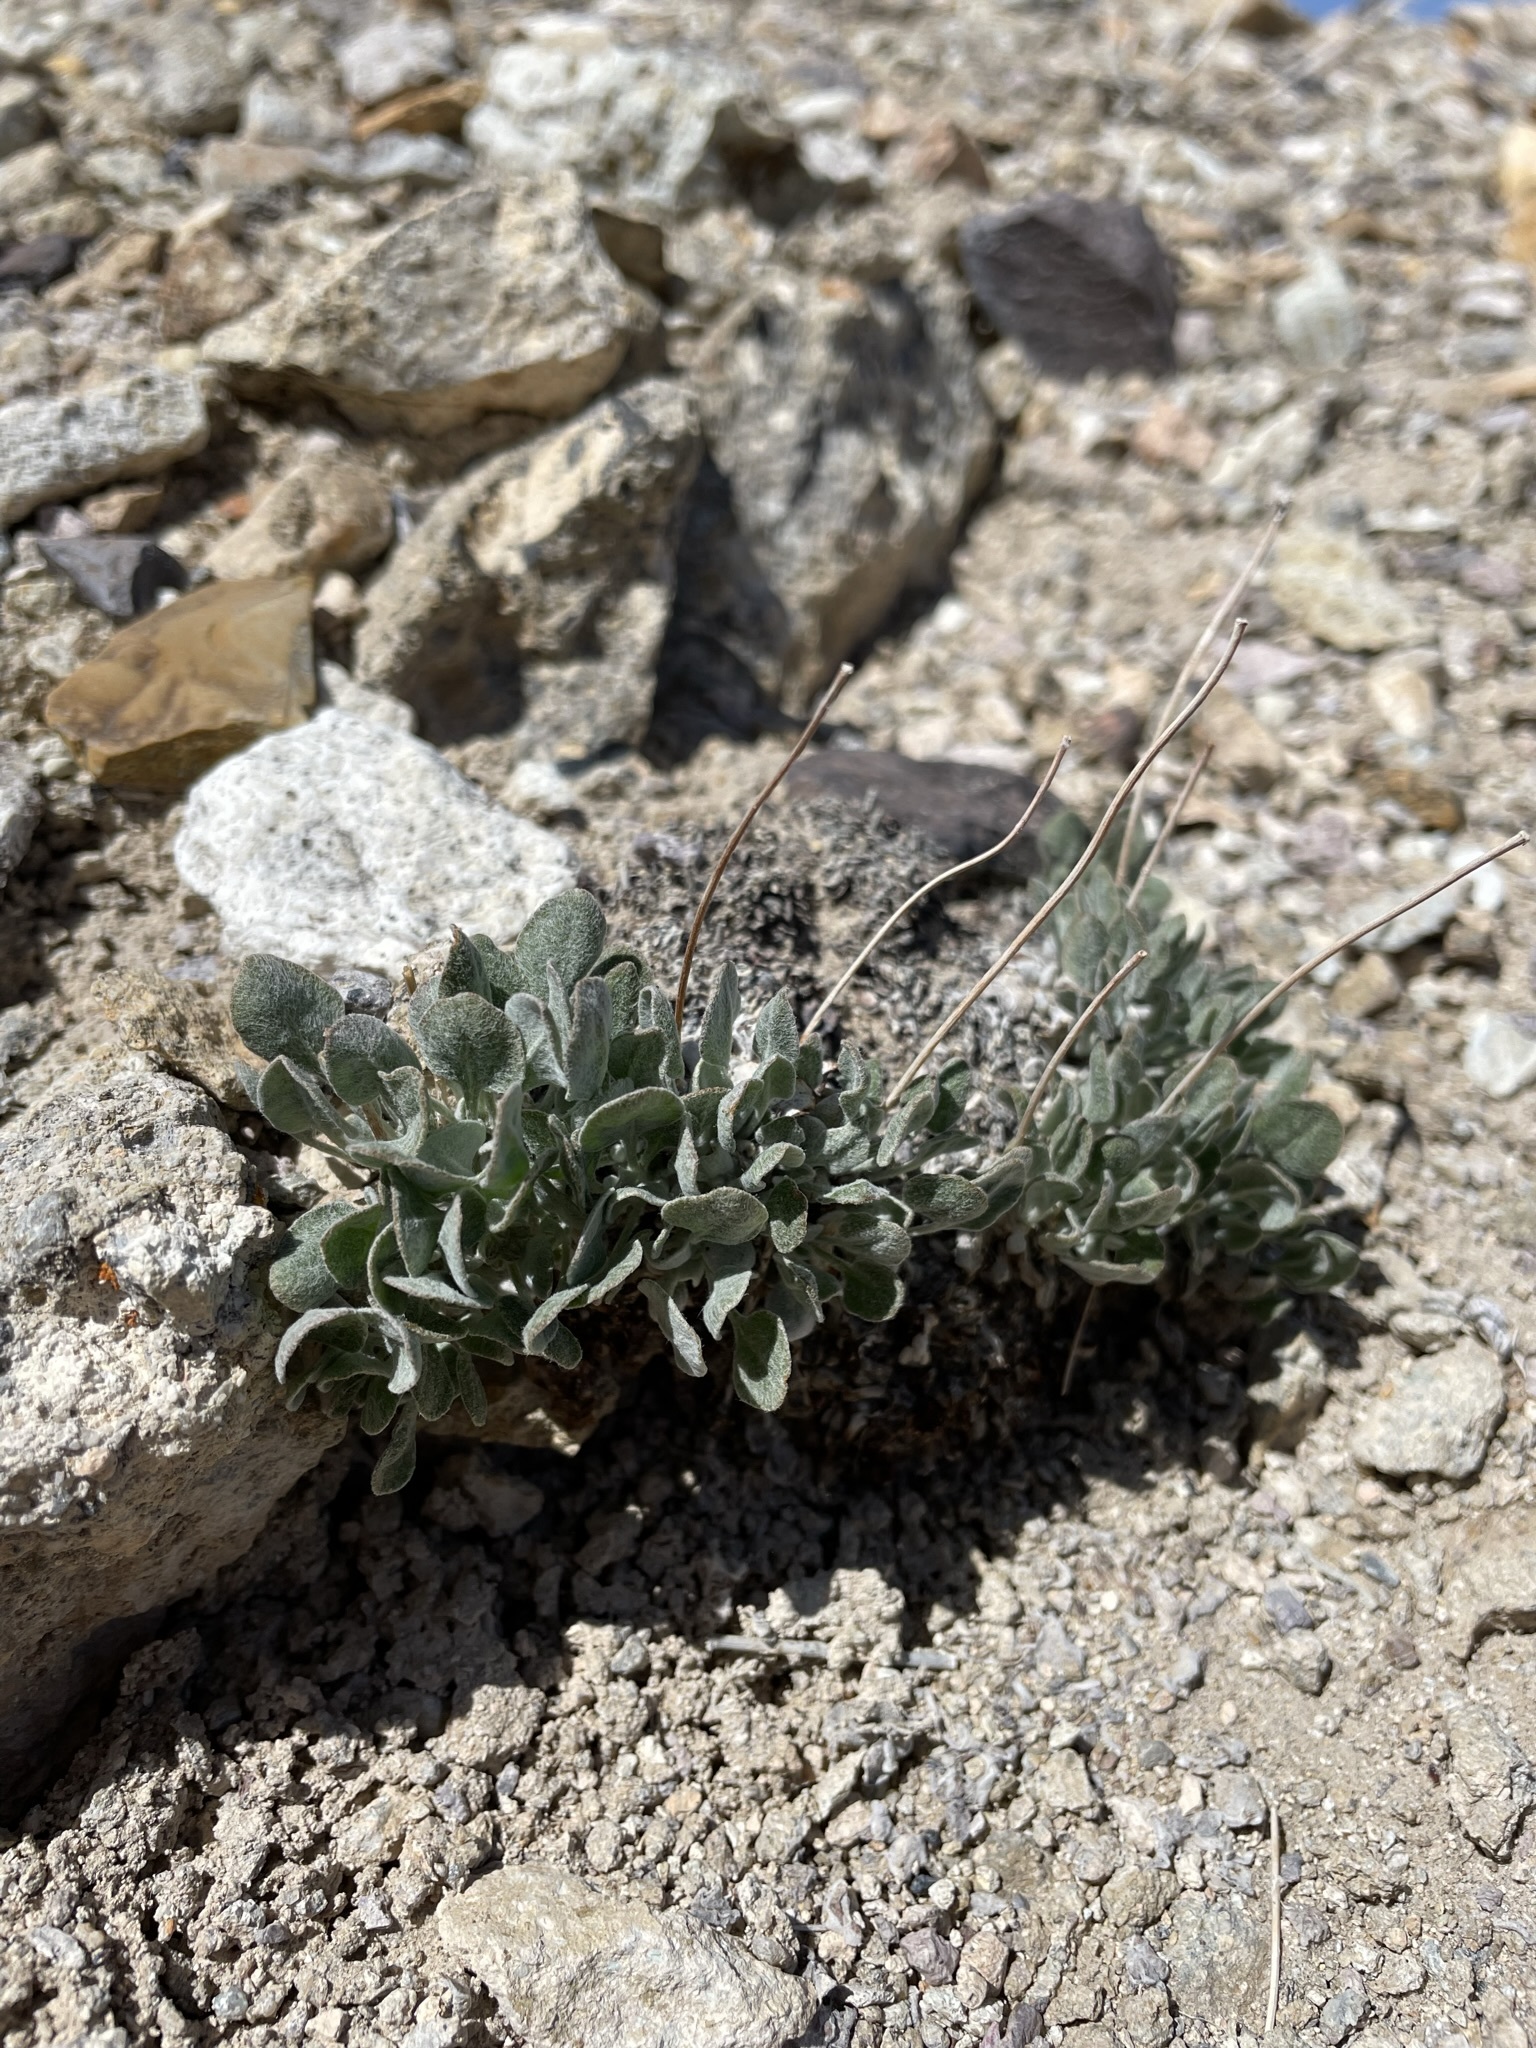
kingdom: Plantae
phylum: Tracheophyta
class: Magnoliopsida
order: Caryophyllales
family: Polygonaceae
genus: Eriogonum
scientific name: Eriogonum ovalifolium
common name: Cushion buckwheat
